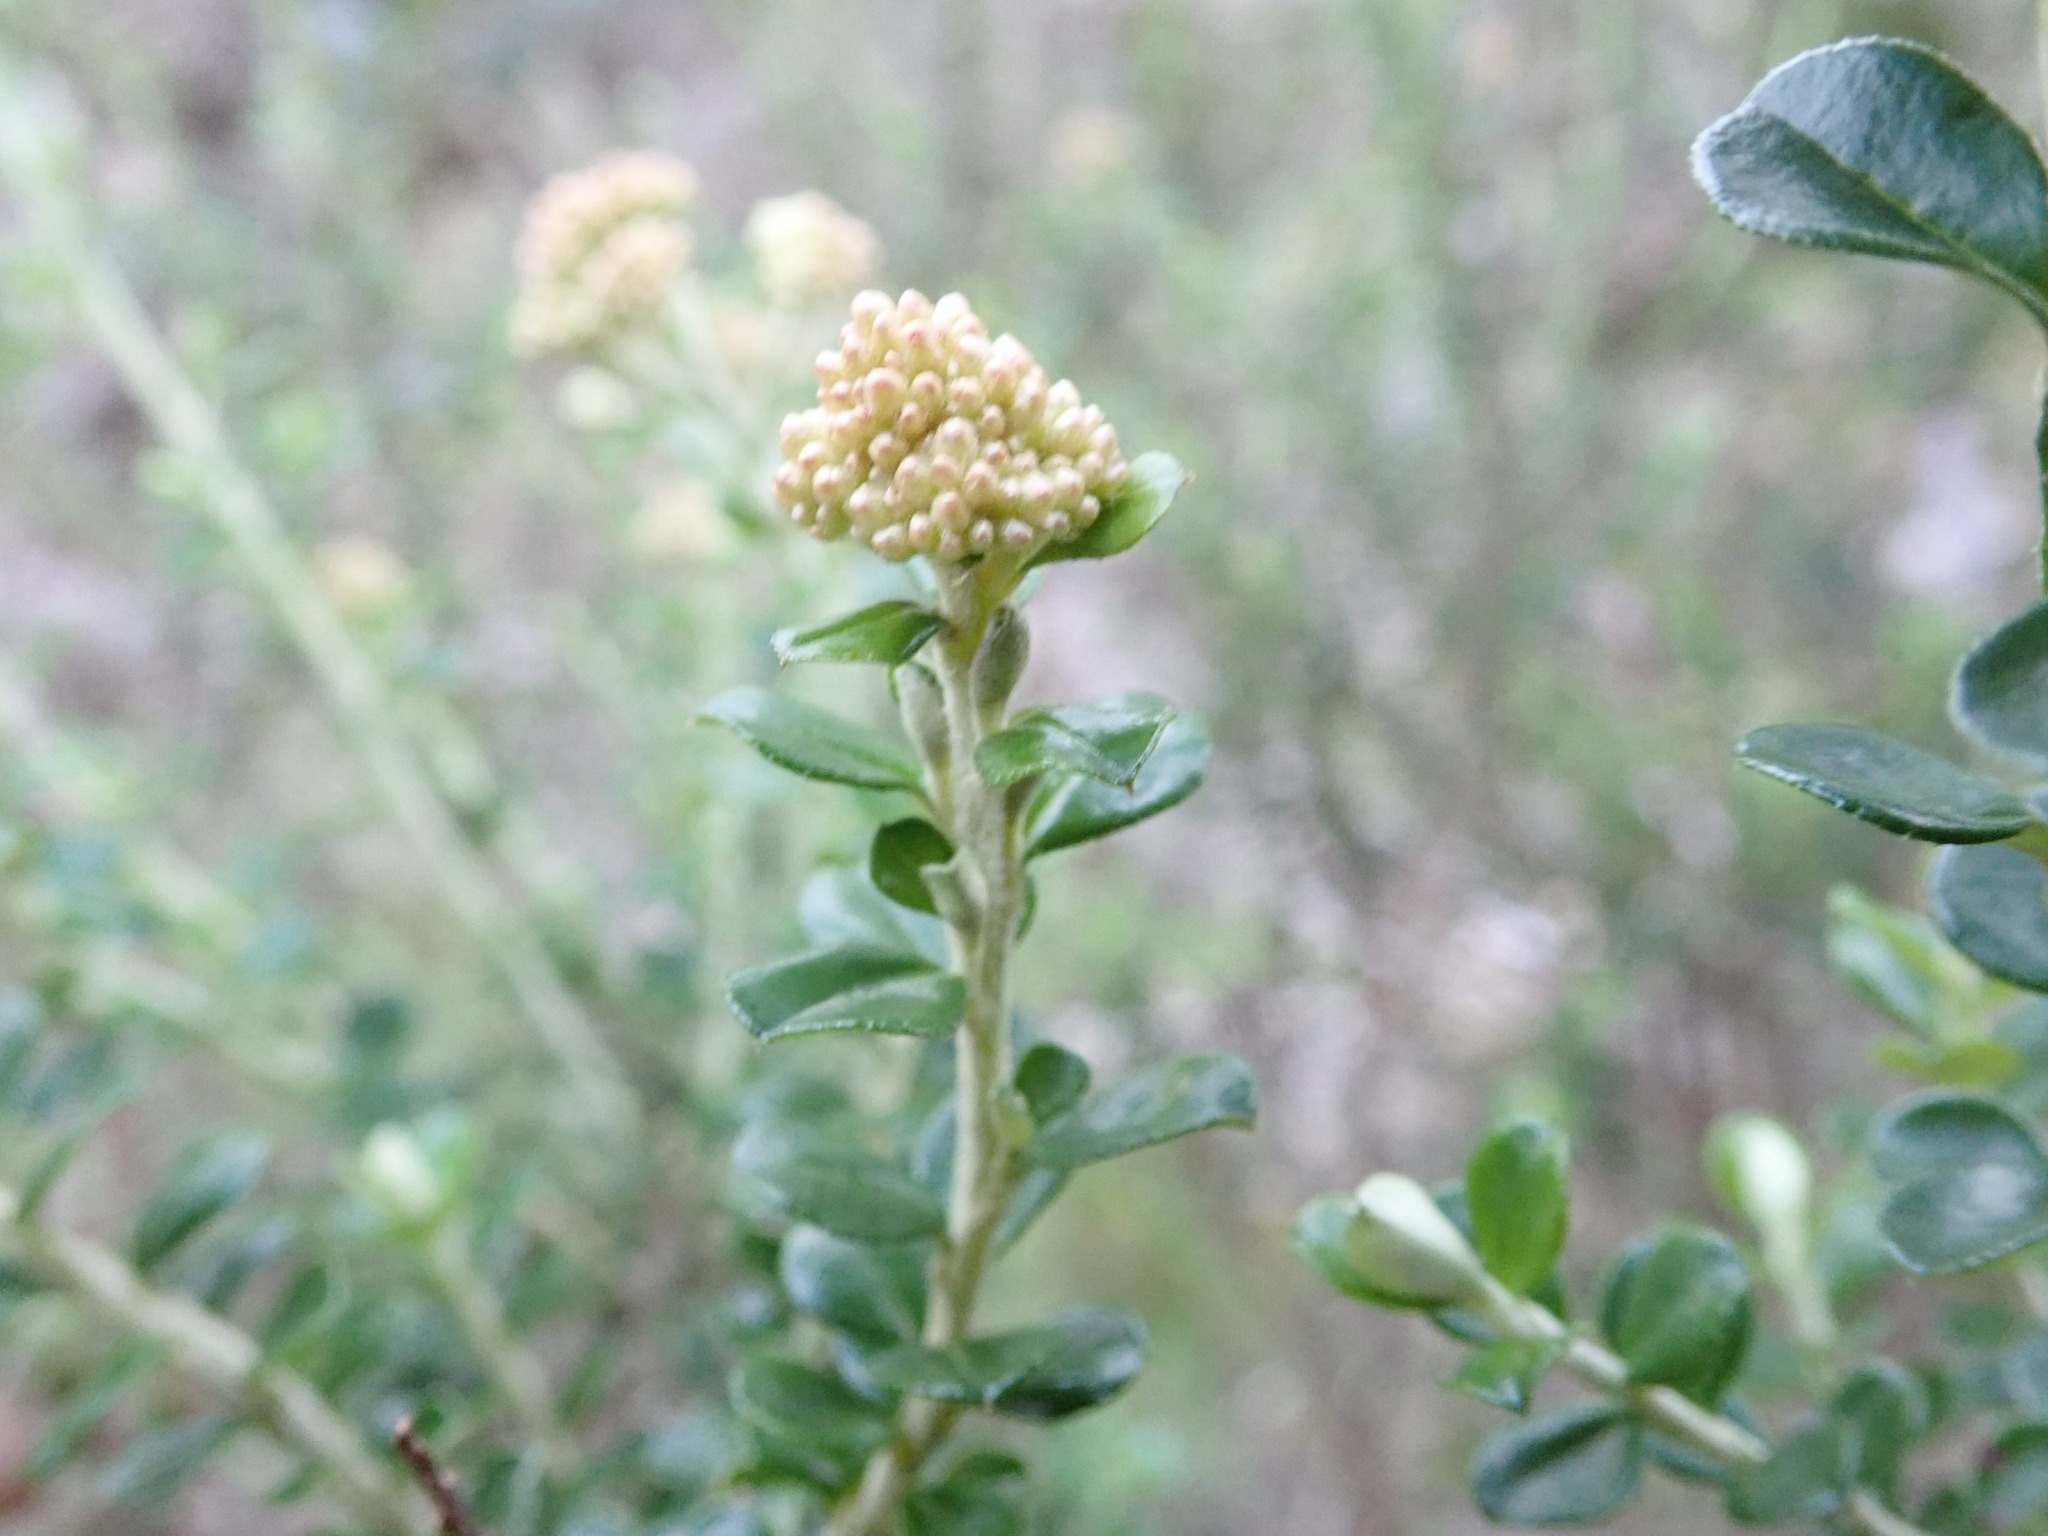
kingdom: Plantae
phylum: Tracheophyta
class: Magnoliopsida
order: Asterales
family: Asteraceae
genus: Ozothamnus
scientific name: Ozothamnus obcordatus
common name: Grey everlasting
